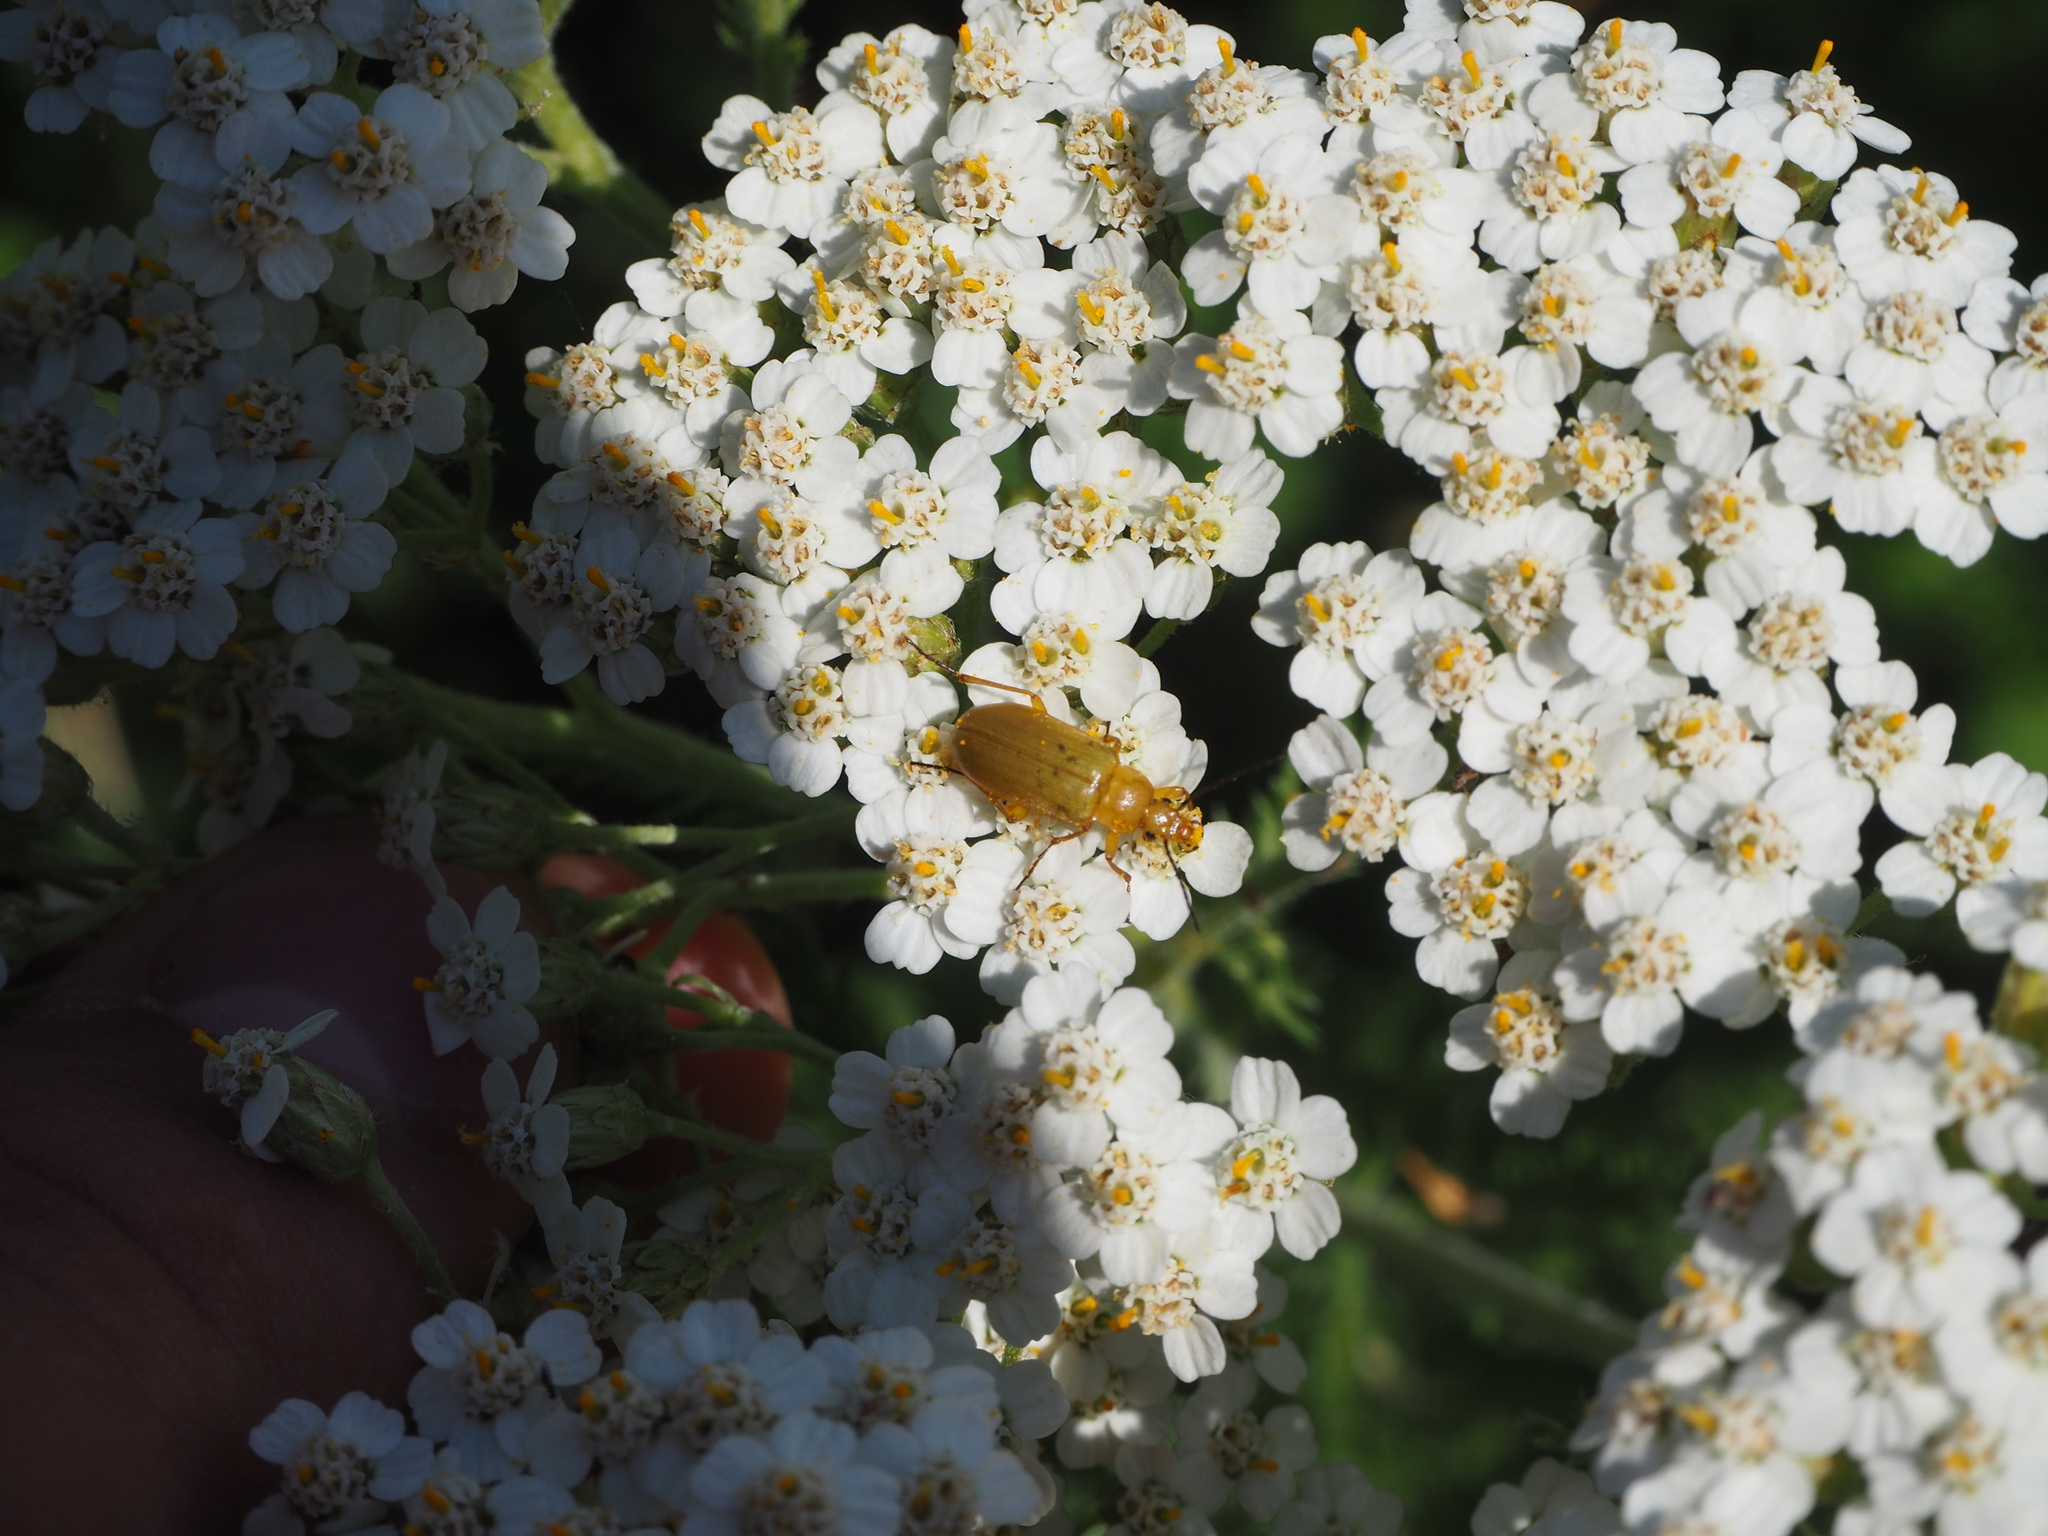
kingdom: Animalia
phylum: Arthropoda
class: Insecta
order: Coleoptera
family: Tenebrionidae
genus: Cteniopus
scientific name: Cteniopus sulphureus
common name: Sulphur beetle
